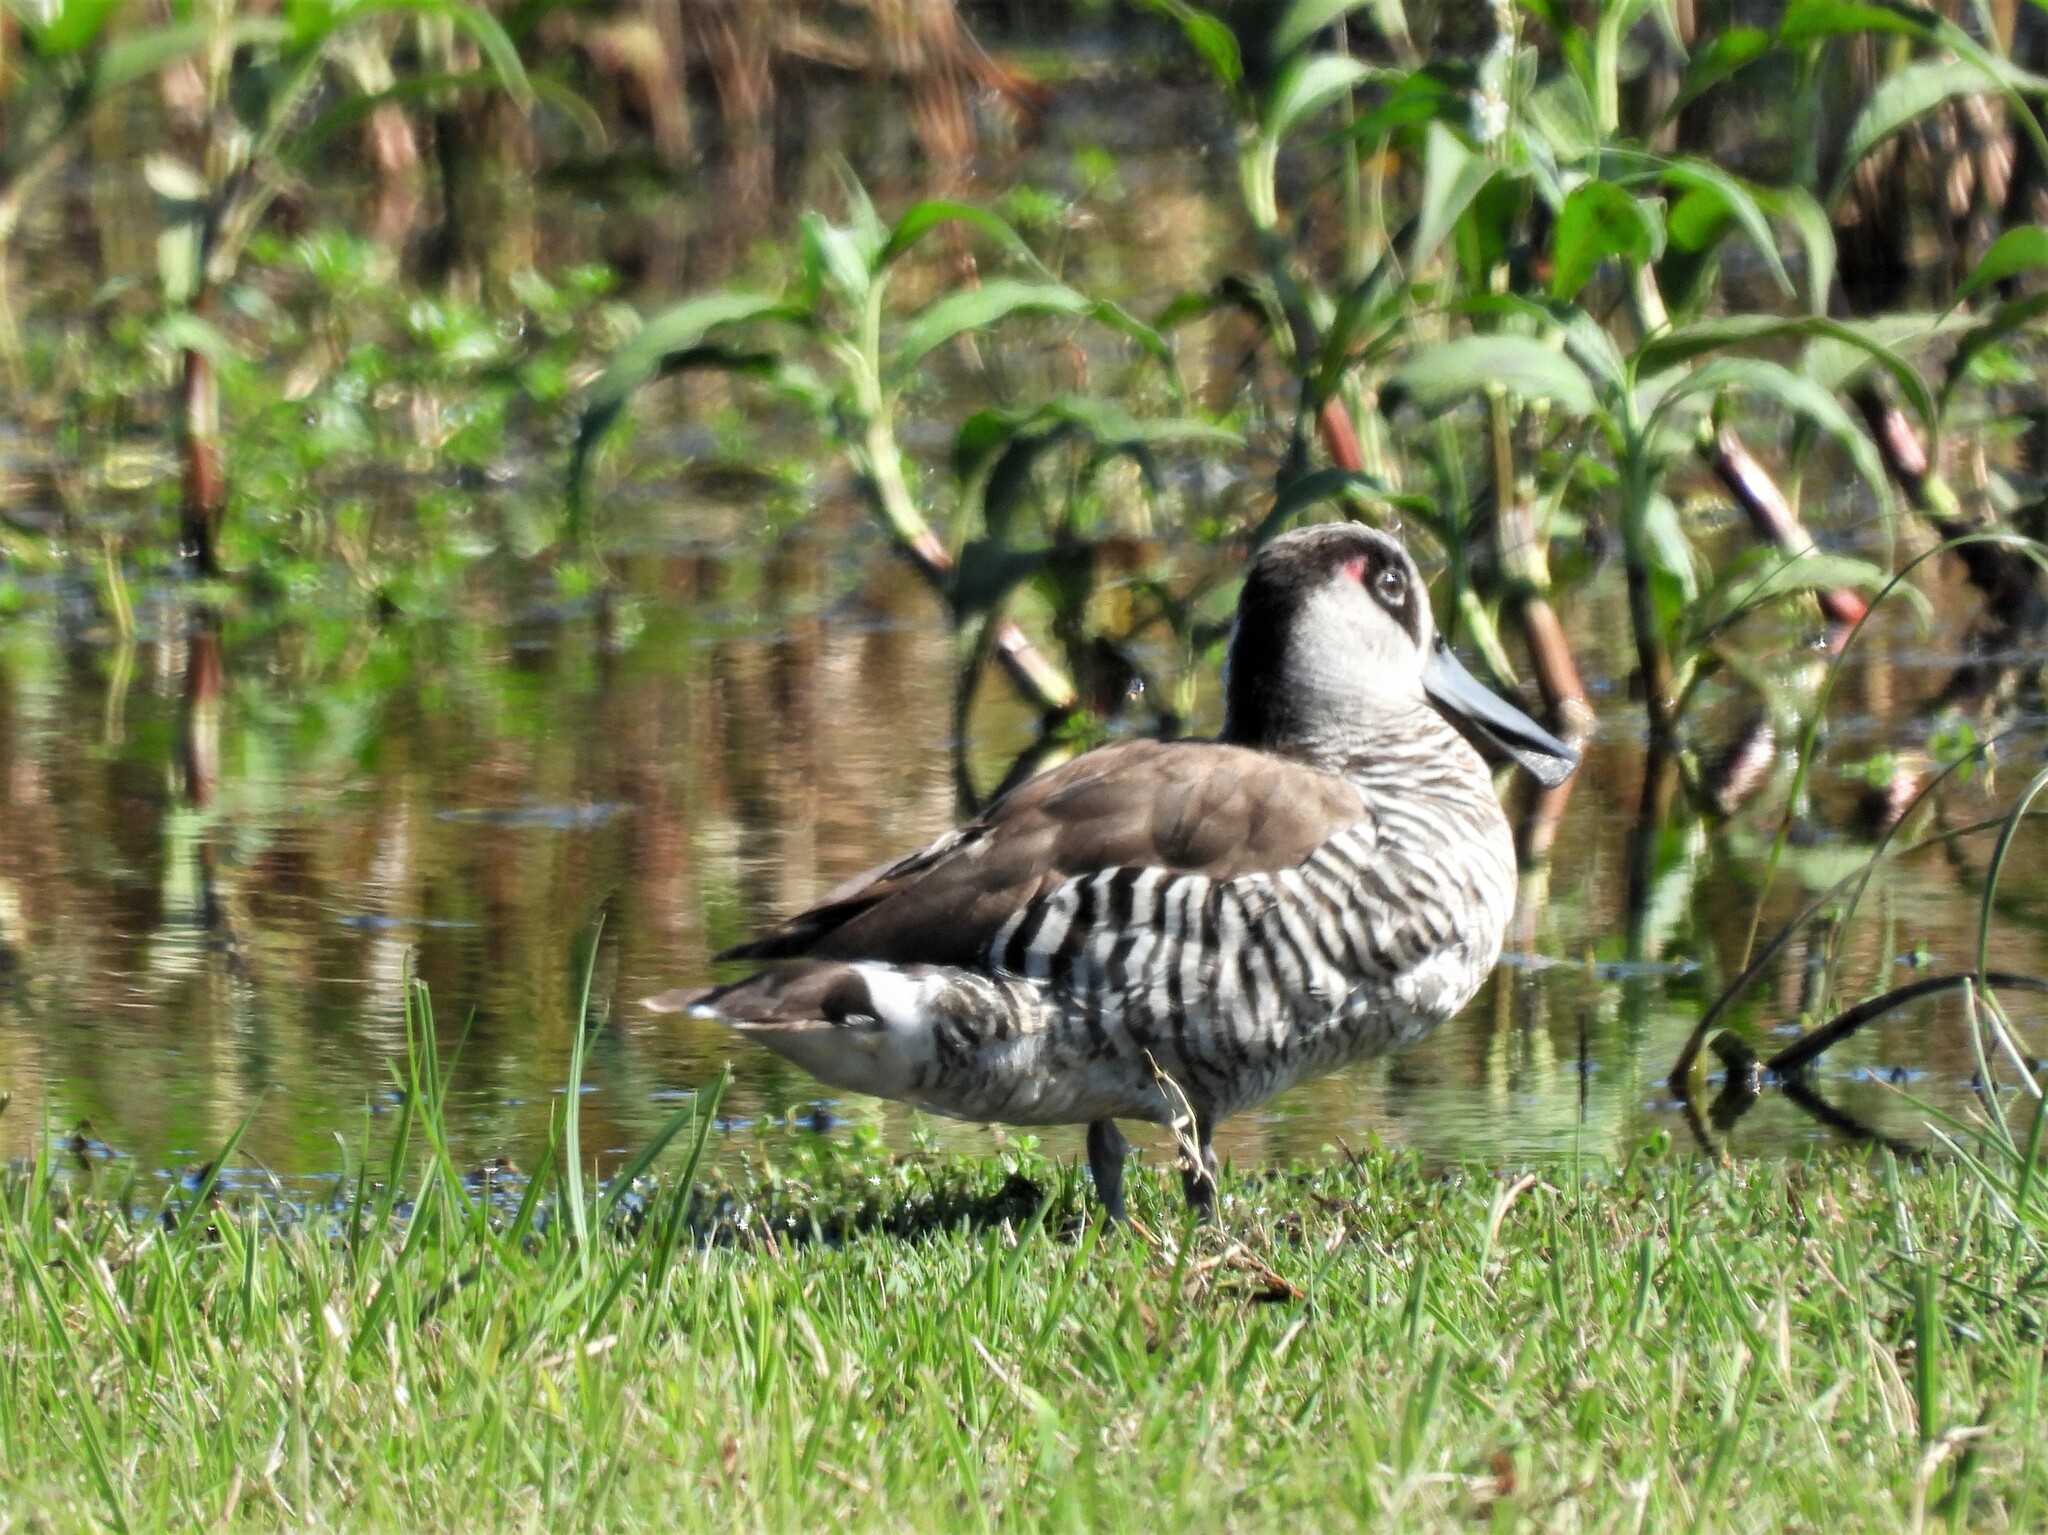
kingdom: Animalia
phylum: Chordata
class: Aves
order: Anseriformes
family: Anatidae
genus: Malacorhynchus
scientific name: Malacorhynchus membranaceus
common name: Pink-eared duck
